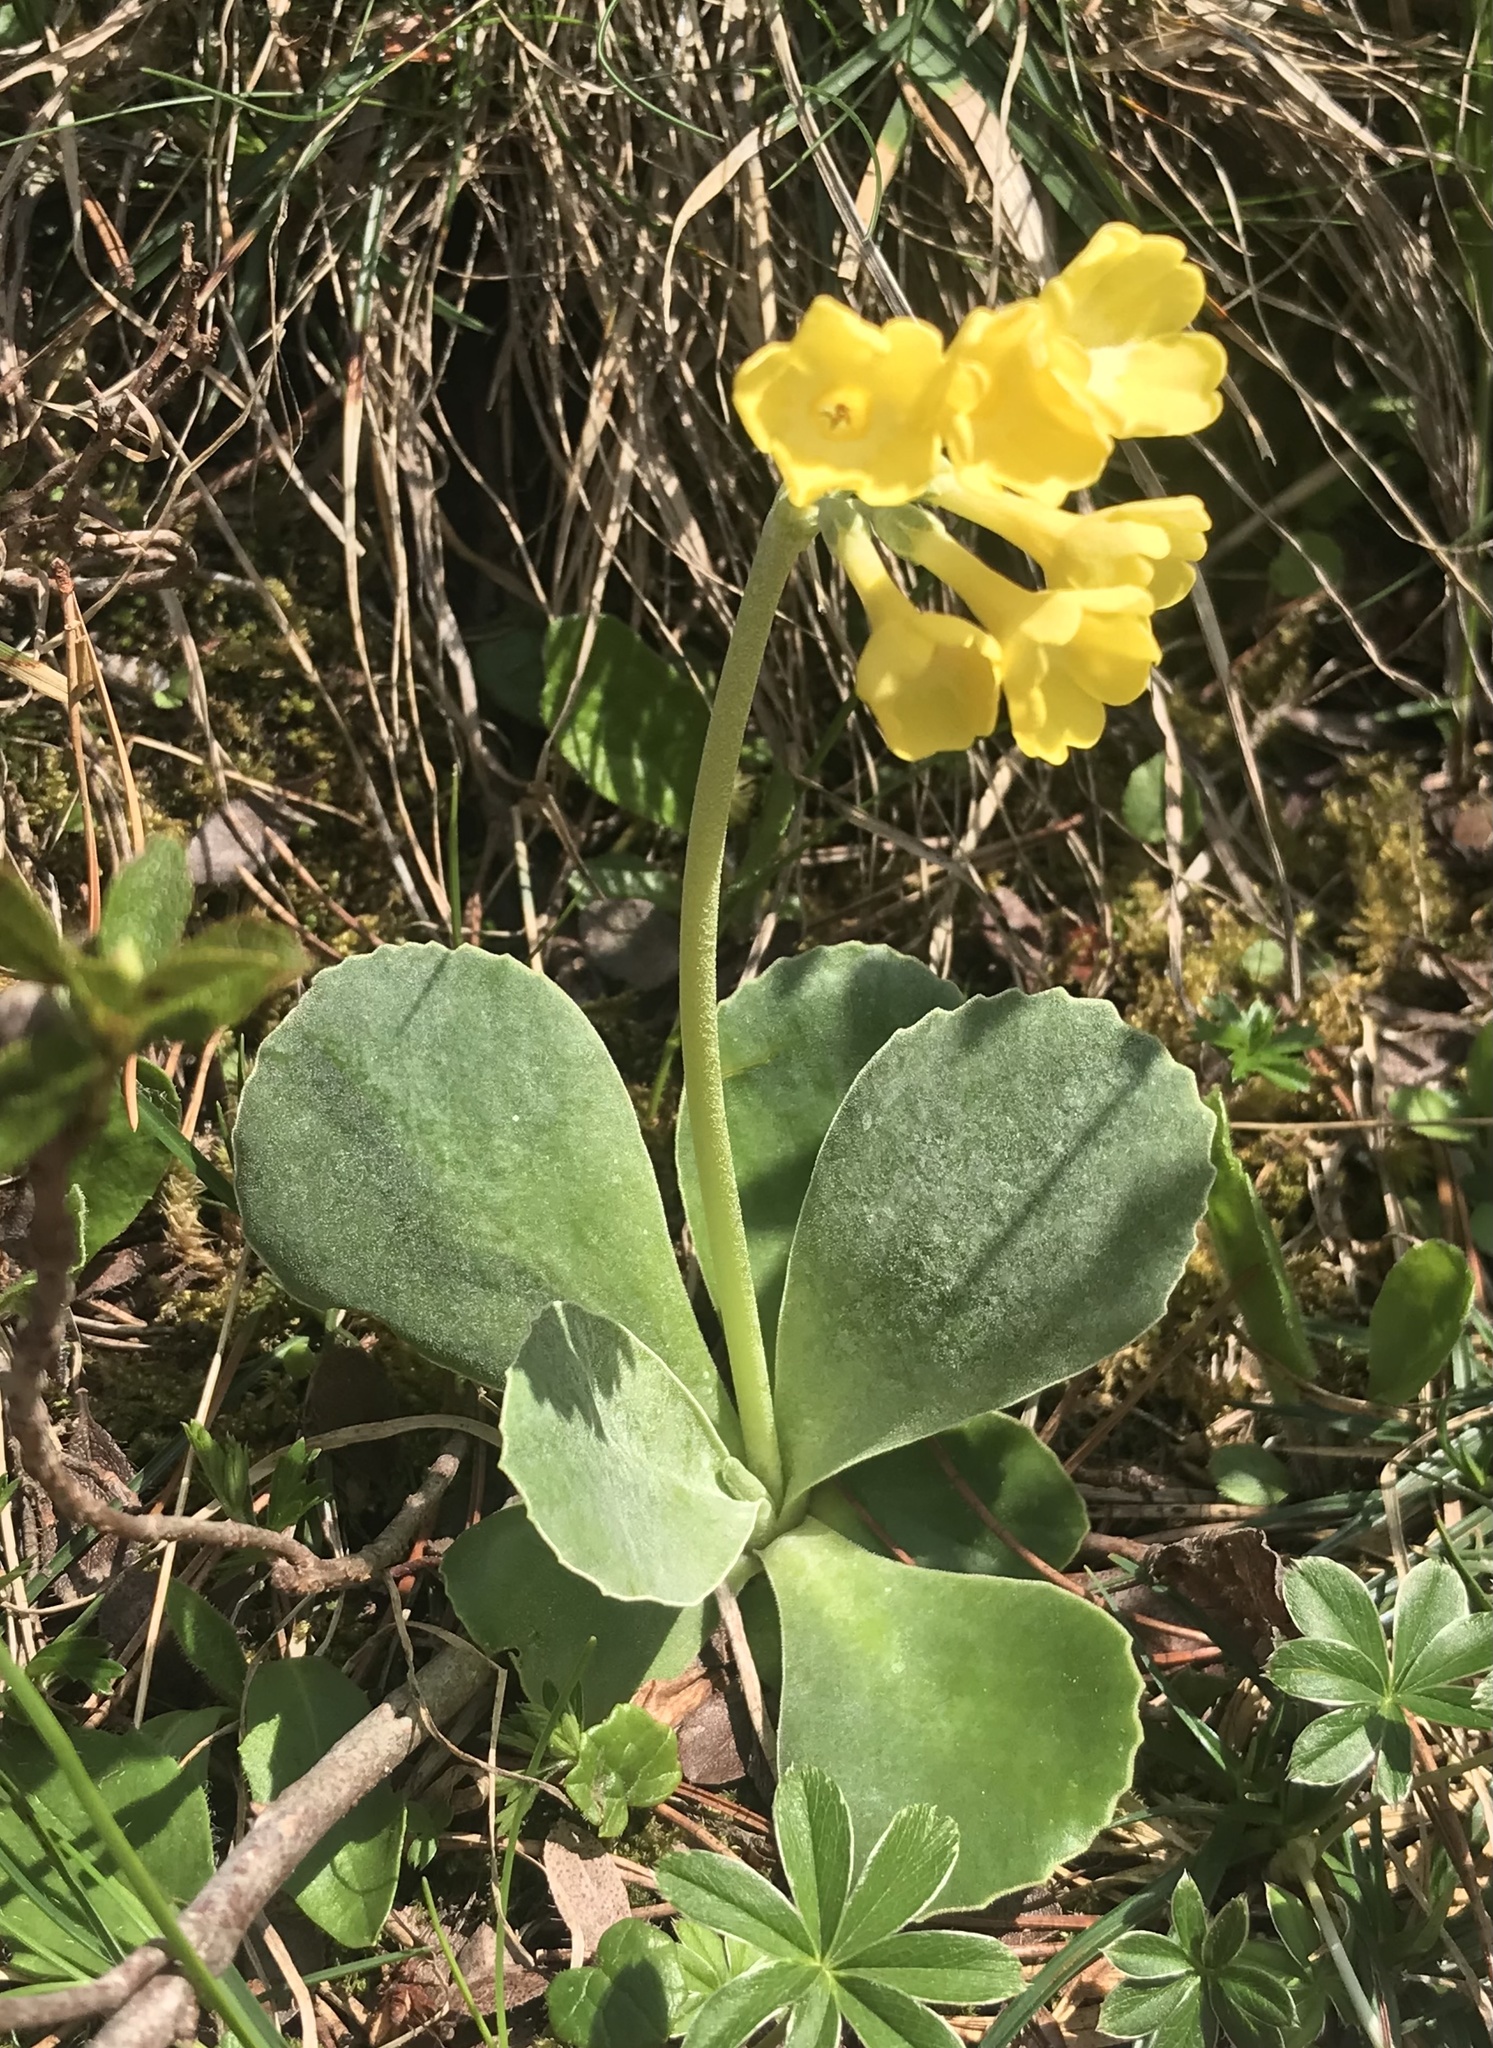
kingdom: Plantae
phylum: Tracheophyta
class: Magnoliopsida
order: Ericales
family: Primulaceae
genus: Primula
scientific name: Primula auricula
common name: Auricula
